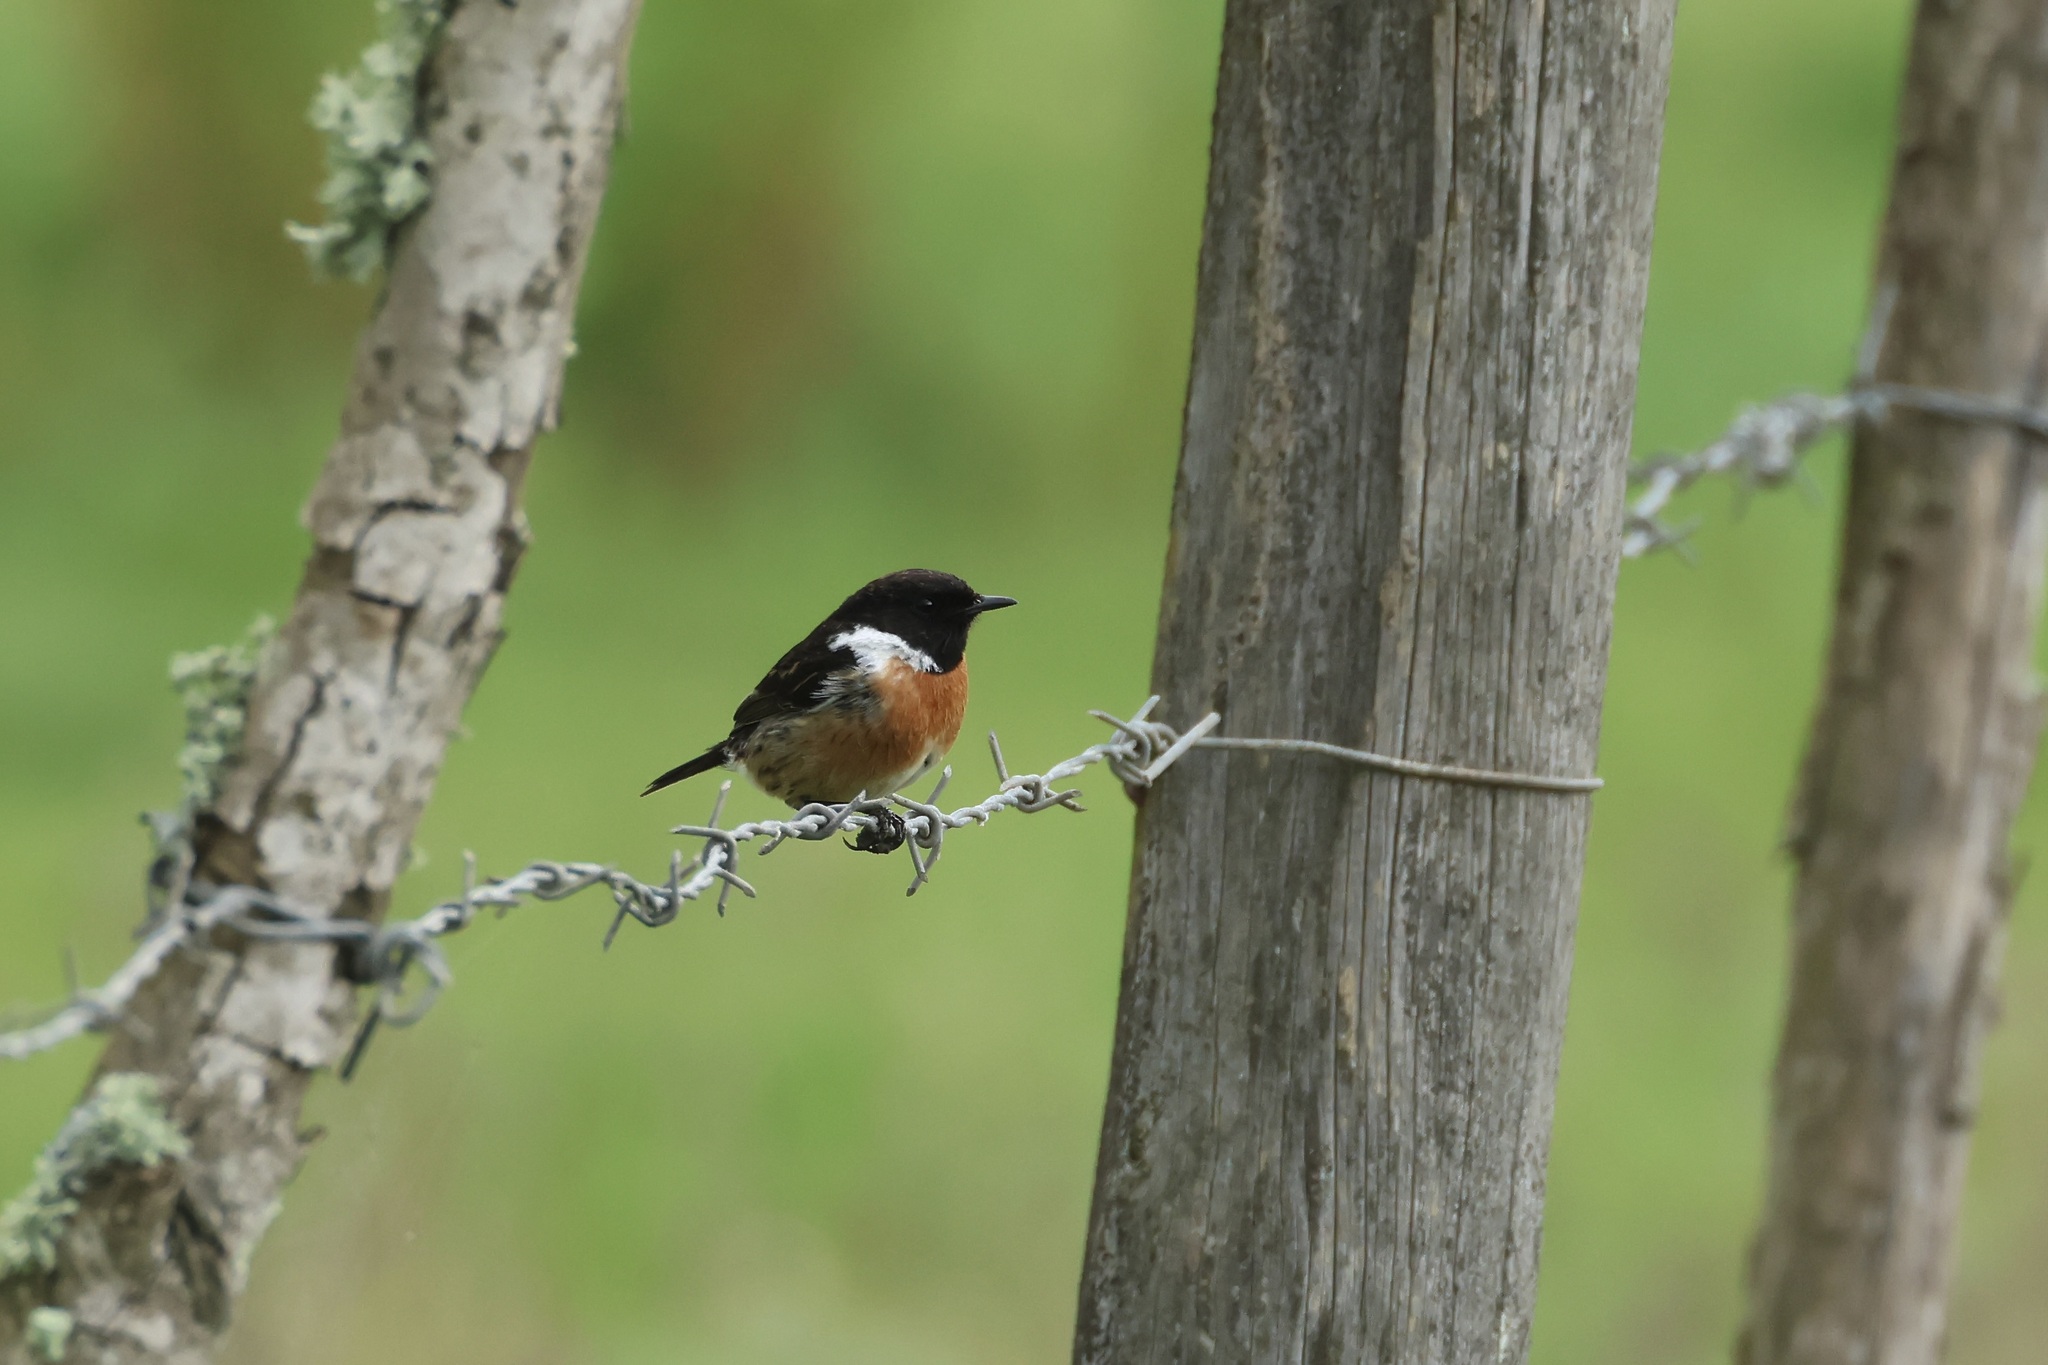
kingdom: Animalia
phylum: Chordata
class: Aves
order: Passeriformes
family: Muscicapidae
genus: Saxicola
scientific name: Saxicola rubicola
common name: European stonechat
